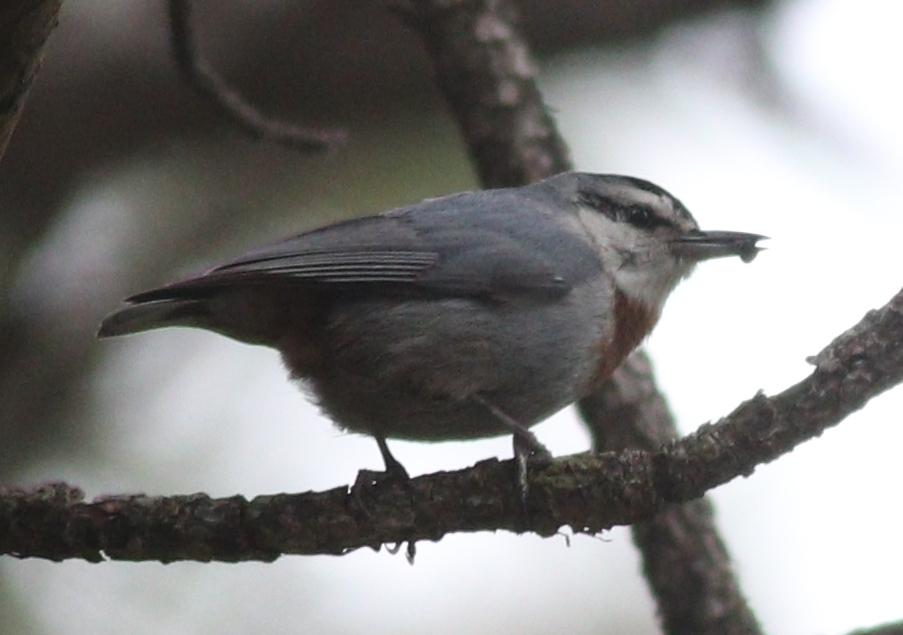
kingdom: Animalia
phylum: Chordata
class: Aves
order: Passeriformes
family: Sittidae
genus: Sitta
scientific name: Sitta krueperi
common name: Krüper's nuthatch
